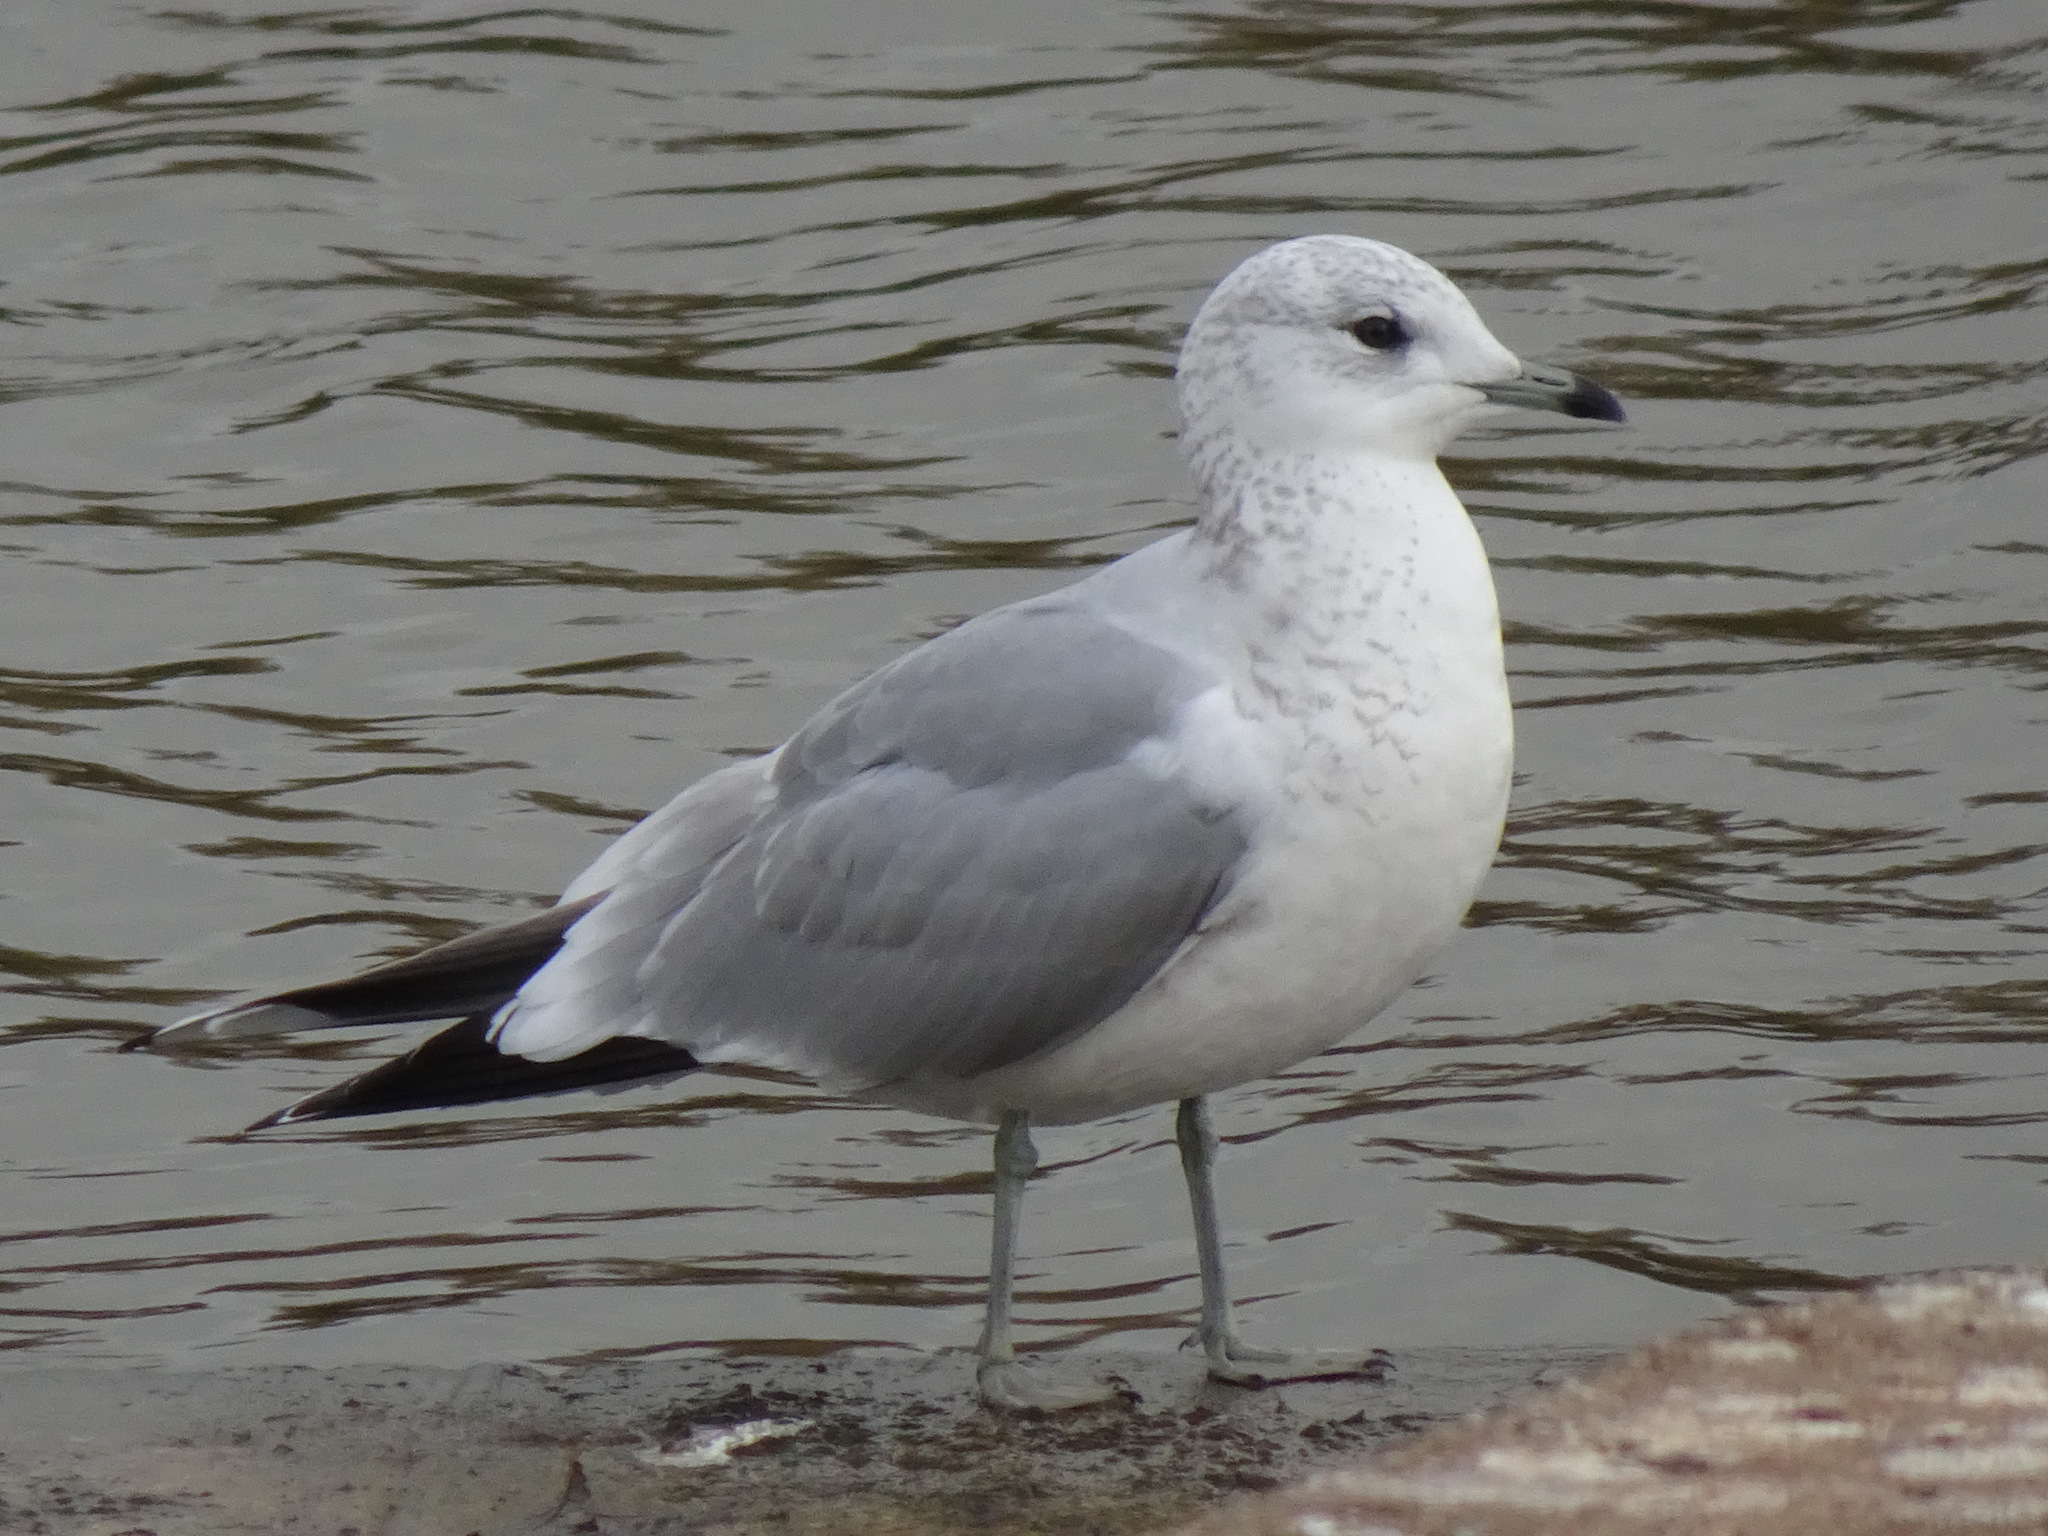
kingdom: Animalia
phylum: Chordata
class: Aves
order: Charadriiformes
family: Laridae
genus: Larus
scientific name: Larus canus
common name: Mew gull
